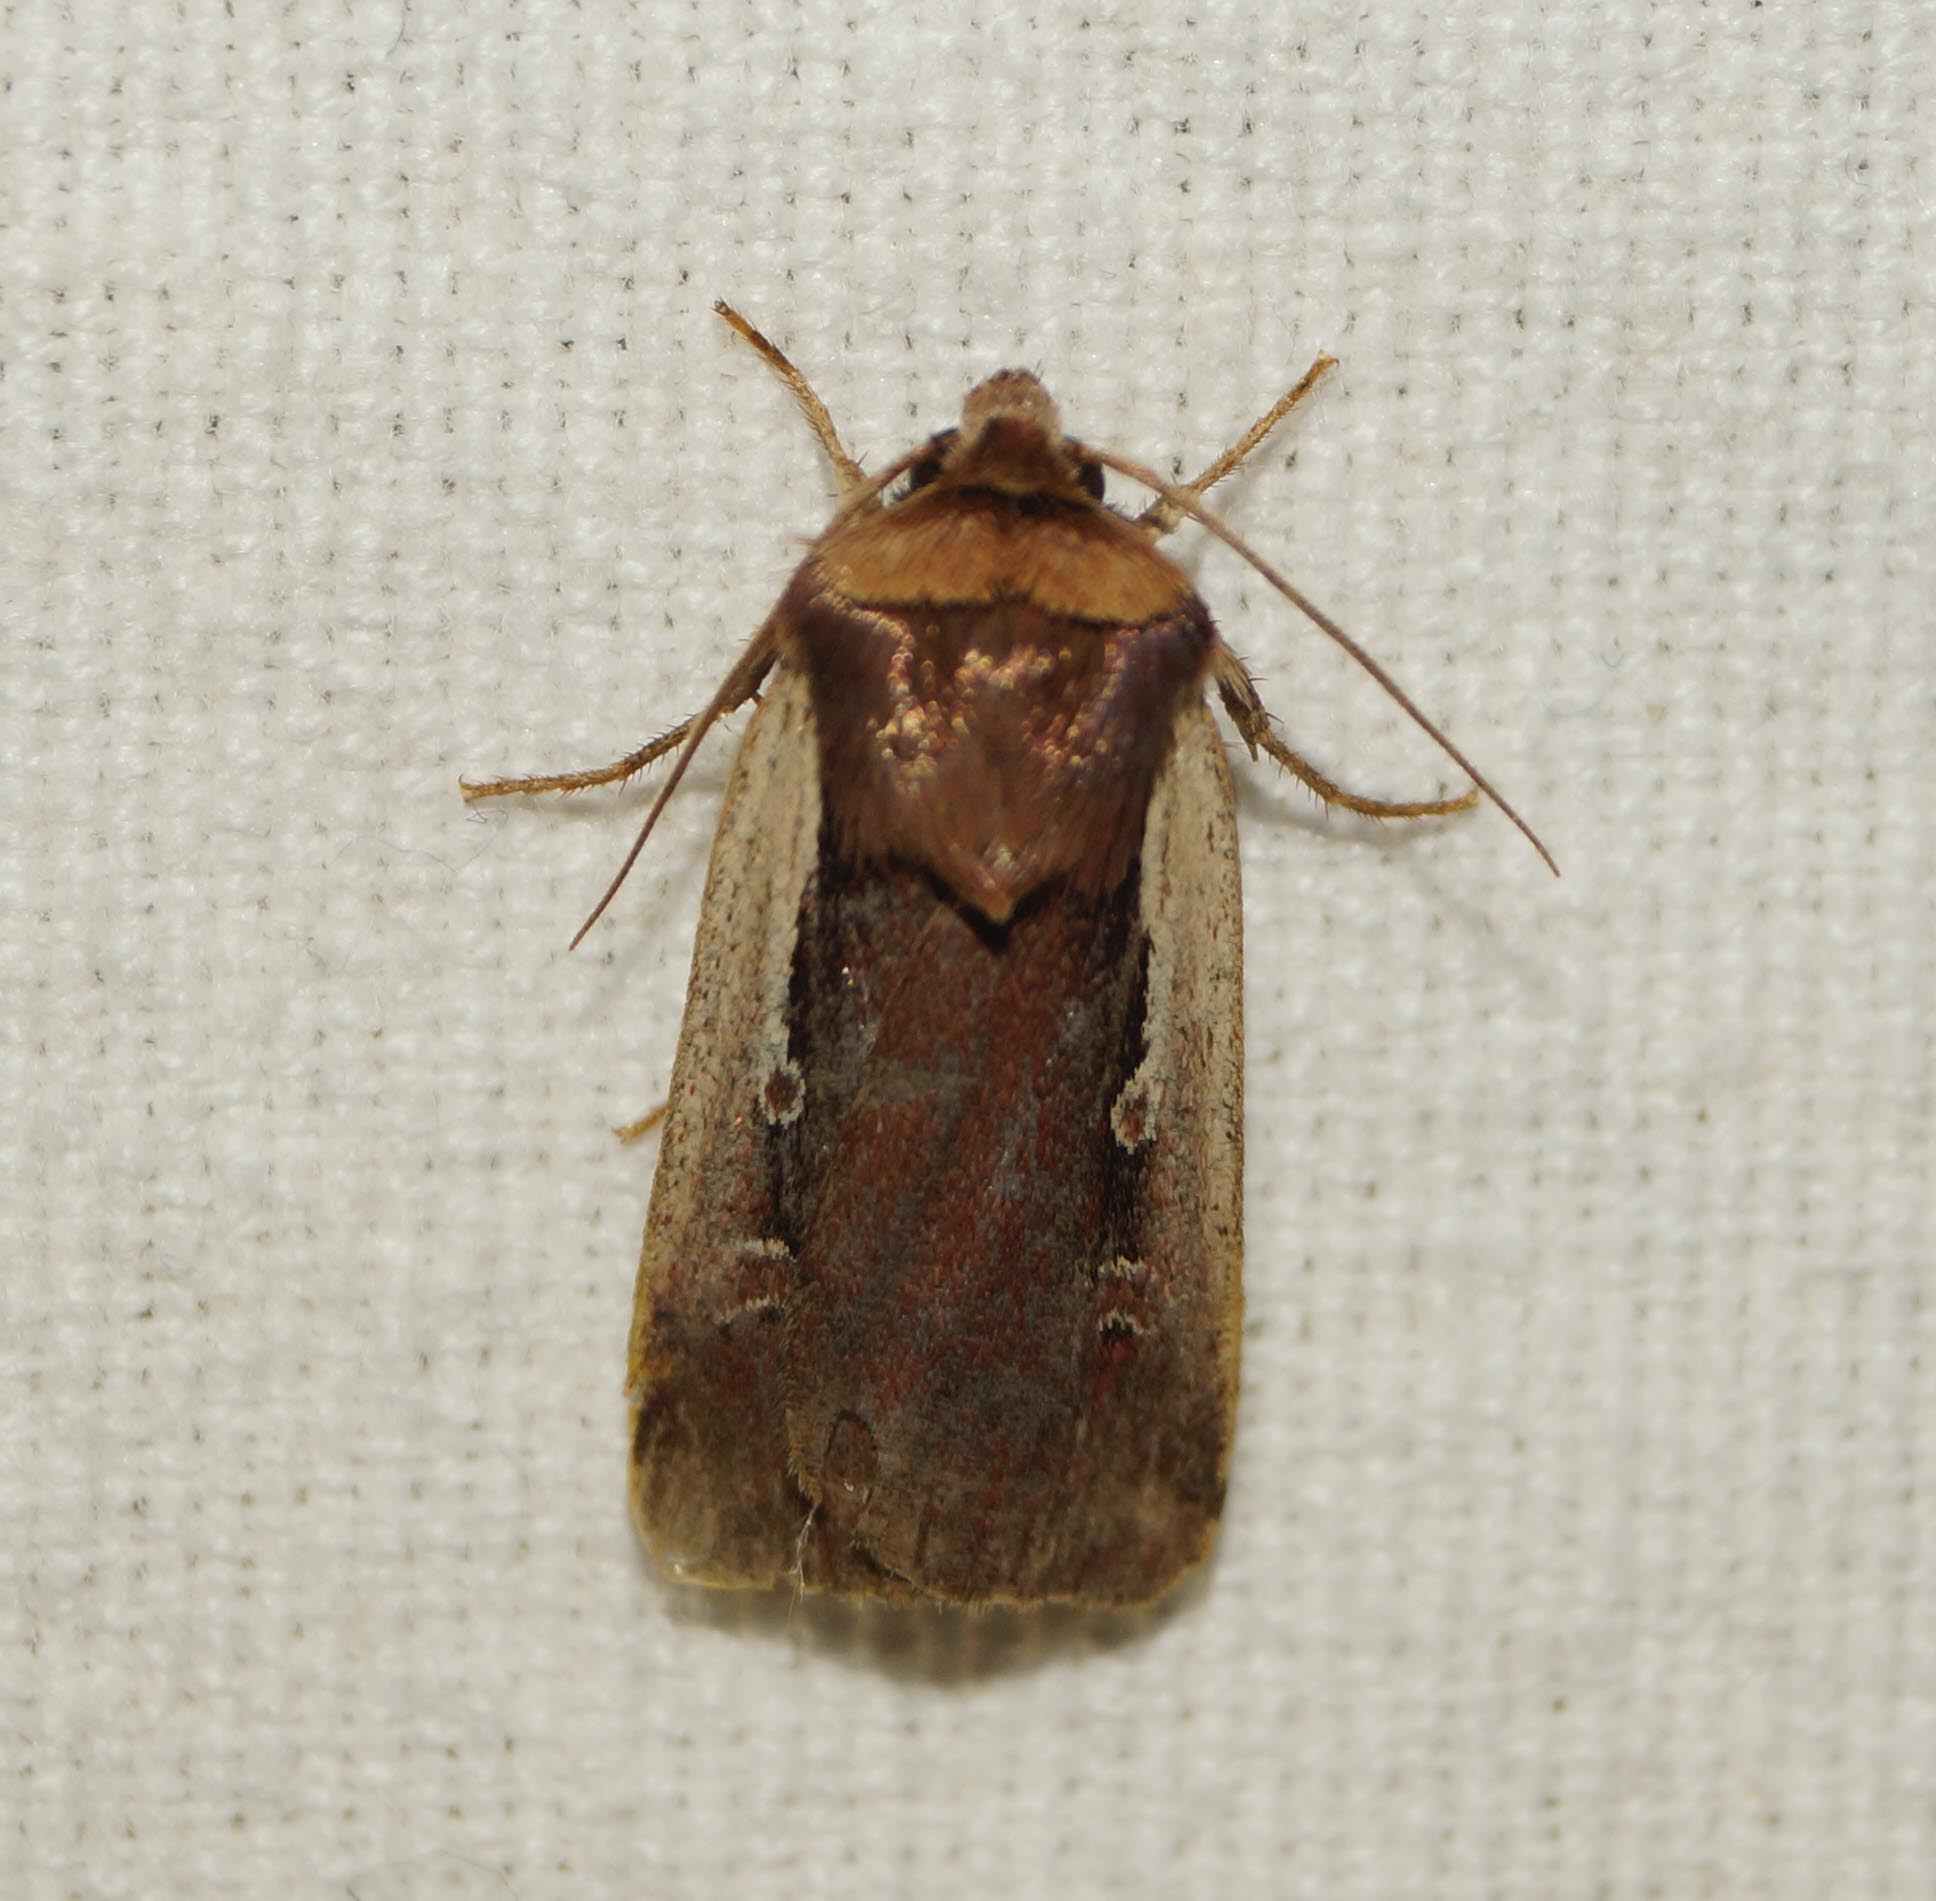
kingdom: Animalia
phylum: Arthropoda
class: Insecta
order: Lepidoptera
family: Noctuidae
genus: Ochropleura
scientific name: Ochropleura plecta
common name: Flame shoulder
